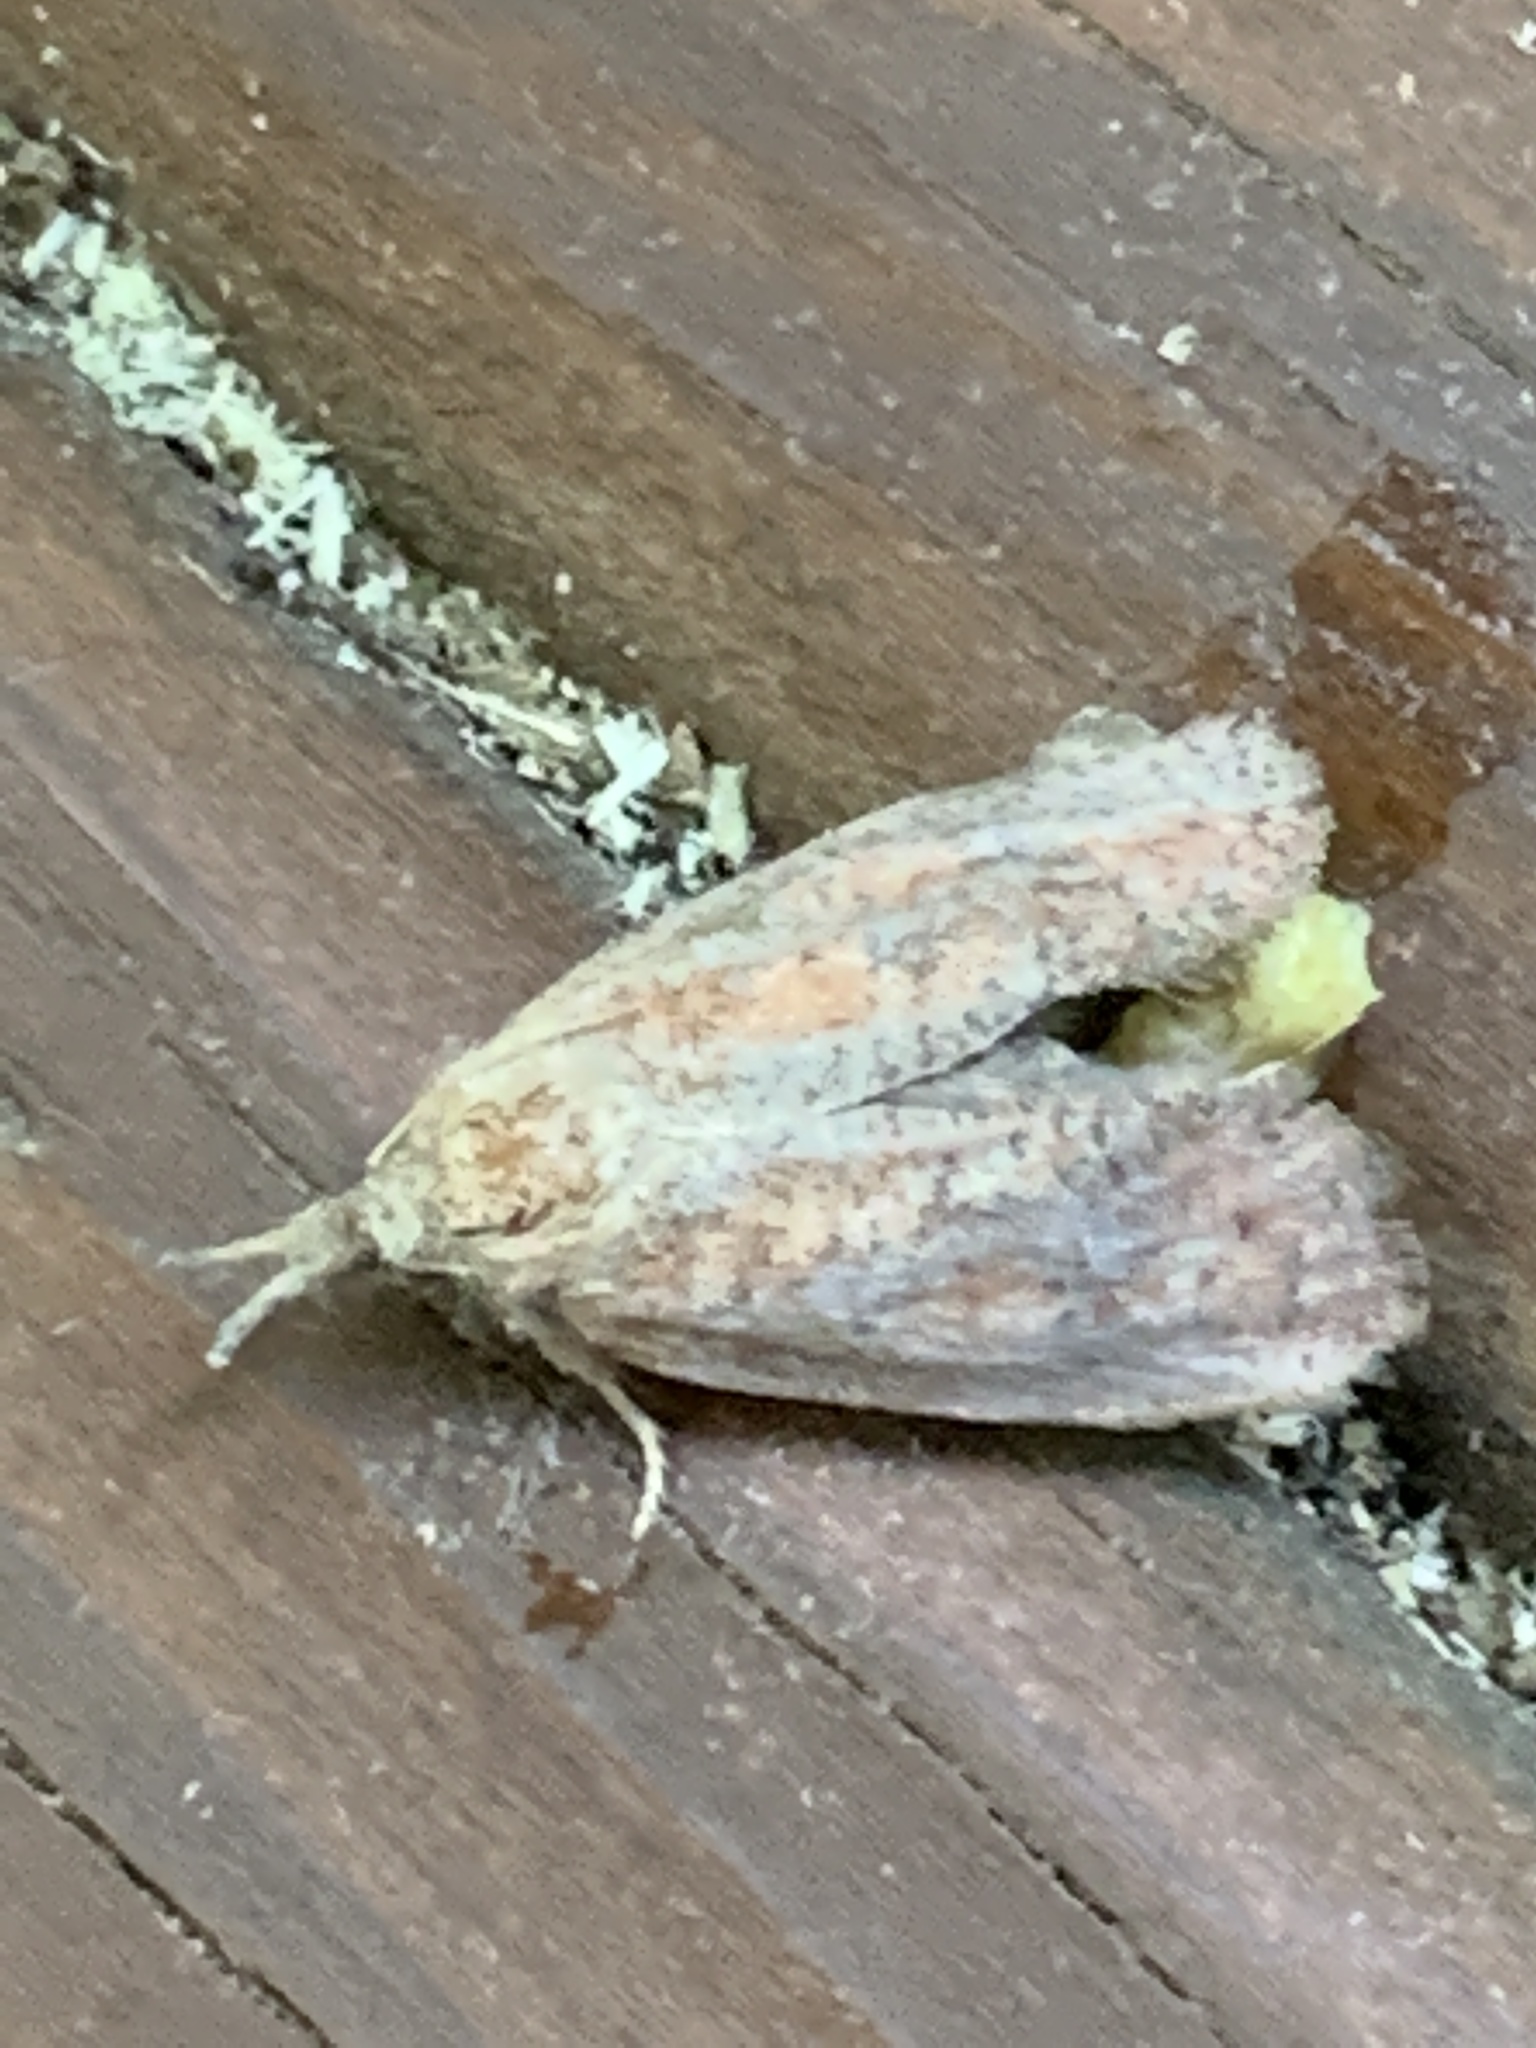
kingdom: Animalia
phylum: Arthropoda
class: Insecta
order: Lepidoptera
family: Tineidae
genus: Acrolophus
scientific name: Acrolophus plumifrontella
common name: Eastern grass tubeworm moth
